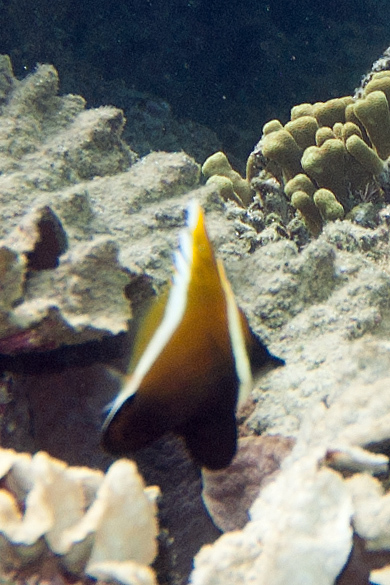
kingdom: Animalia
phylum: Chordata
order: Perciformes
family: Chaetodontidae
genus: Heniochus
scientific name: Heniochus varius
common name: Horned bannerfish
